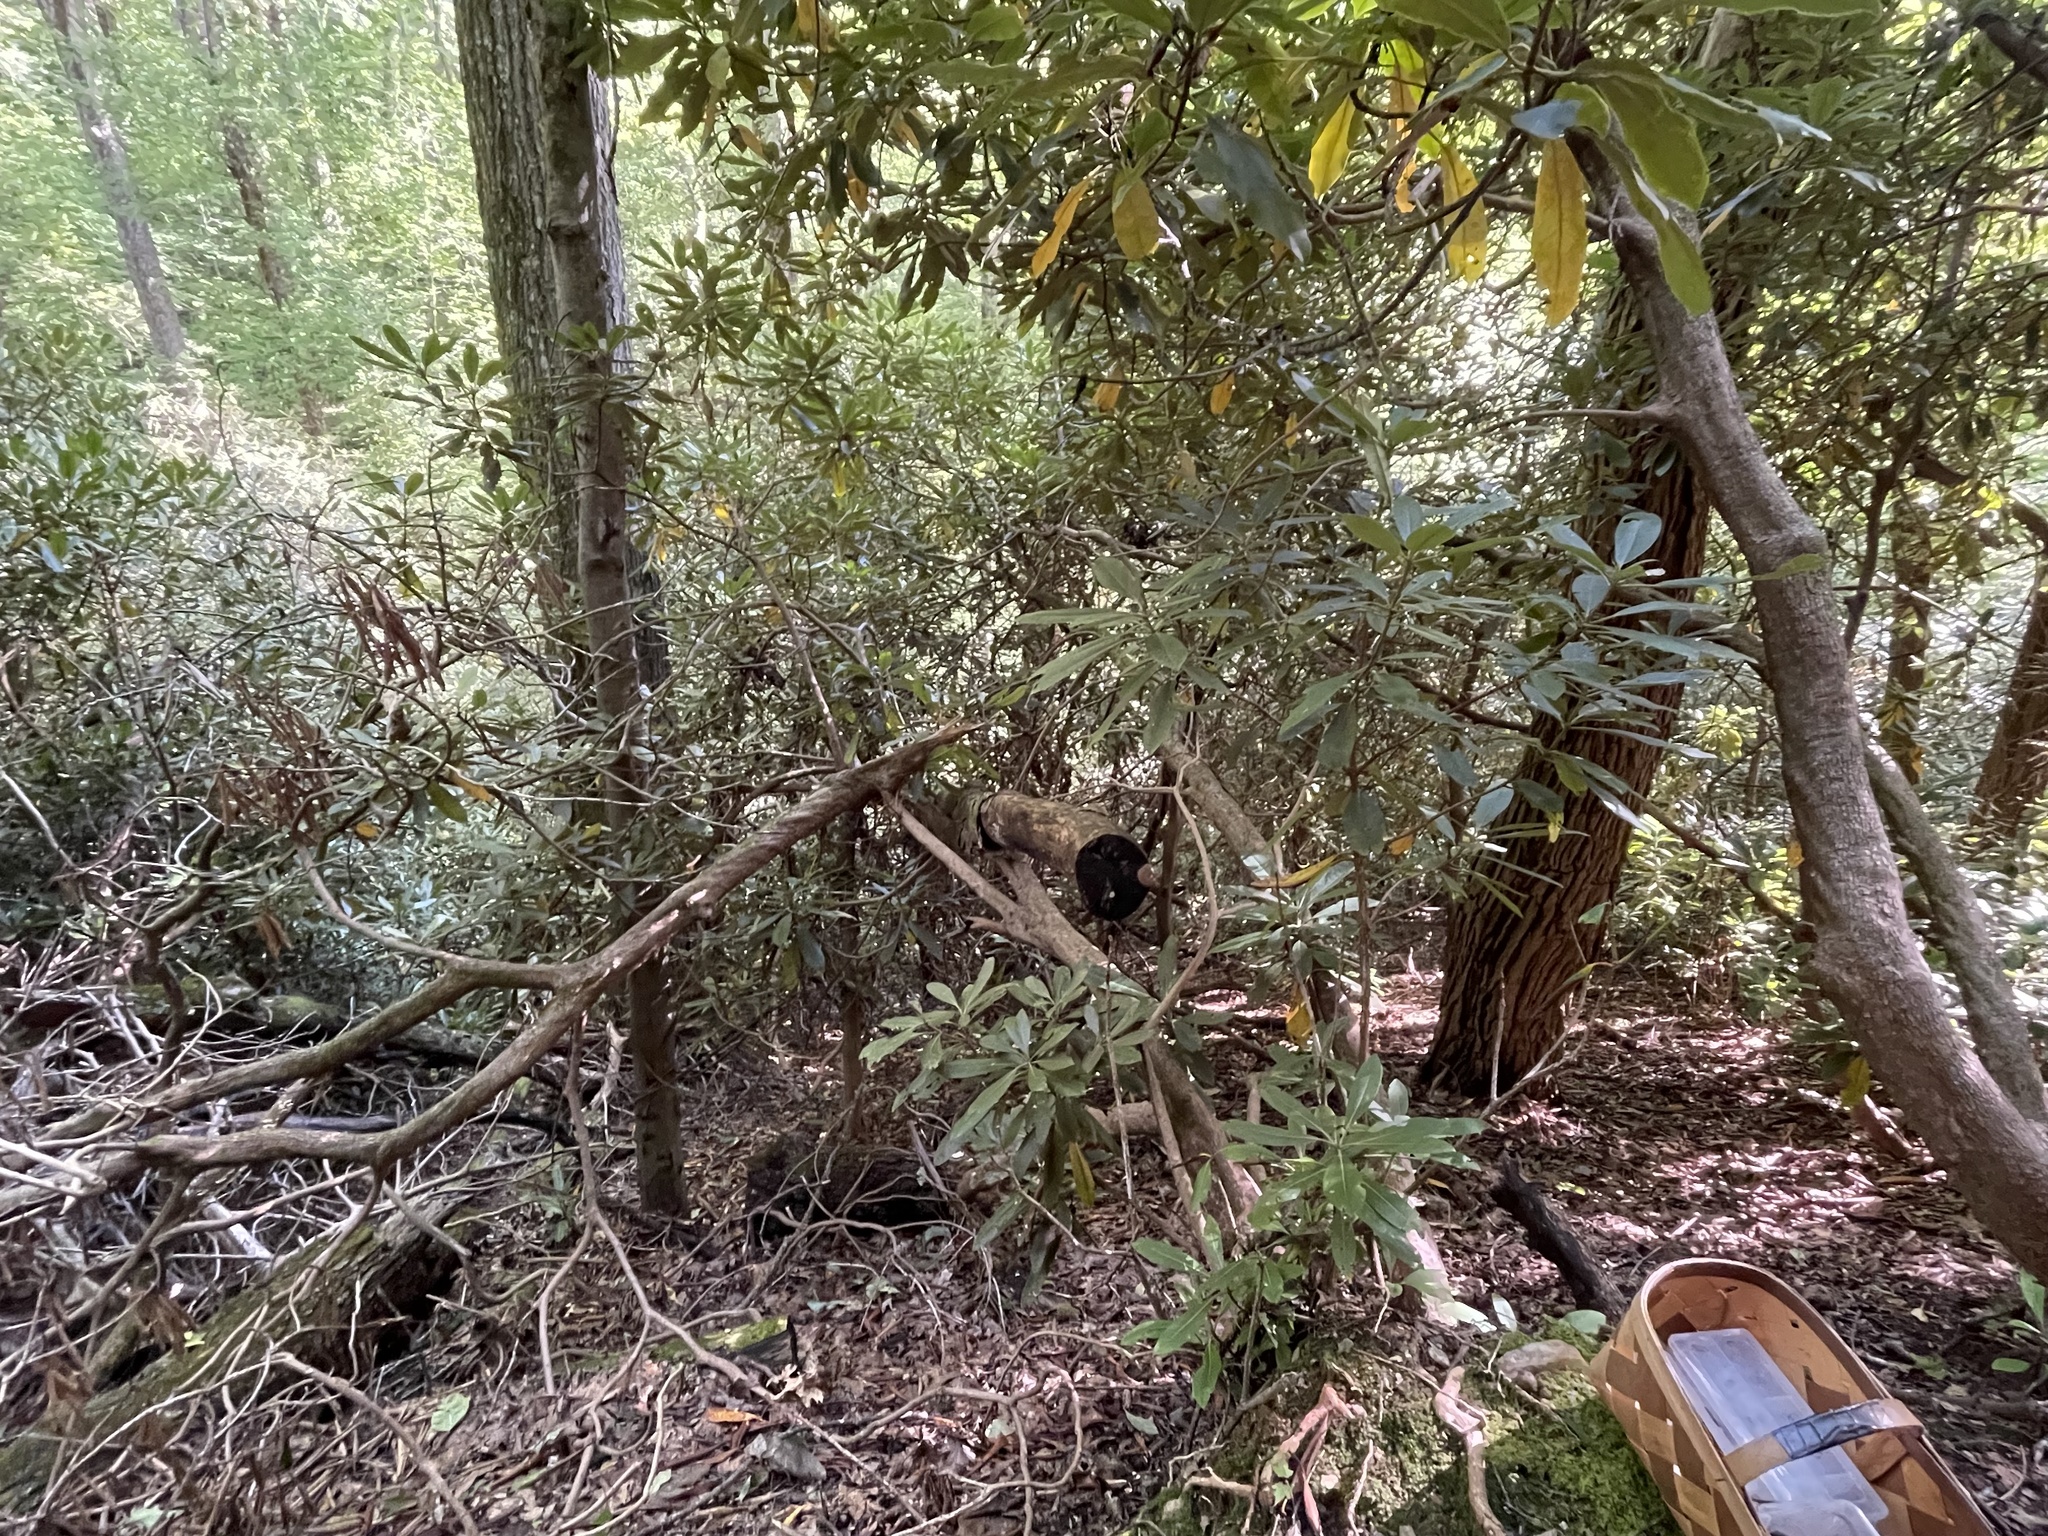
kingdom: Protozoa
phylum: Mycetozoa
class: Myxomycetes
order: Cribrariales
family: Tubiferaceae
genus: Reticularia
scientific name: Reticularia lycoperdon
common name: False puffball
